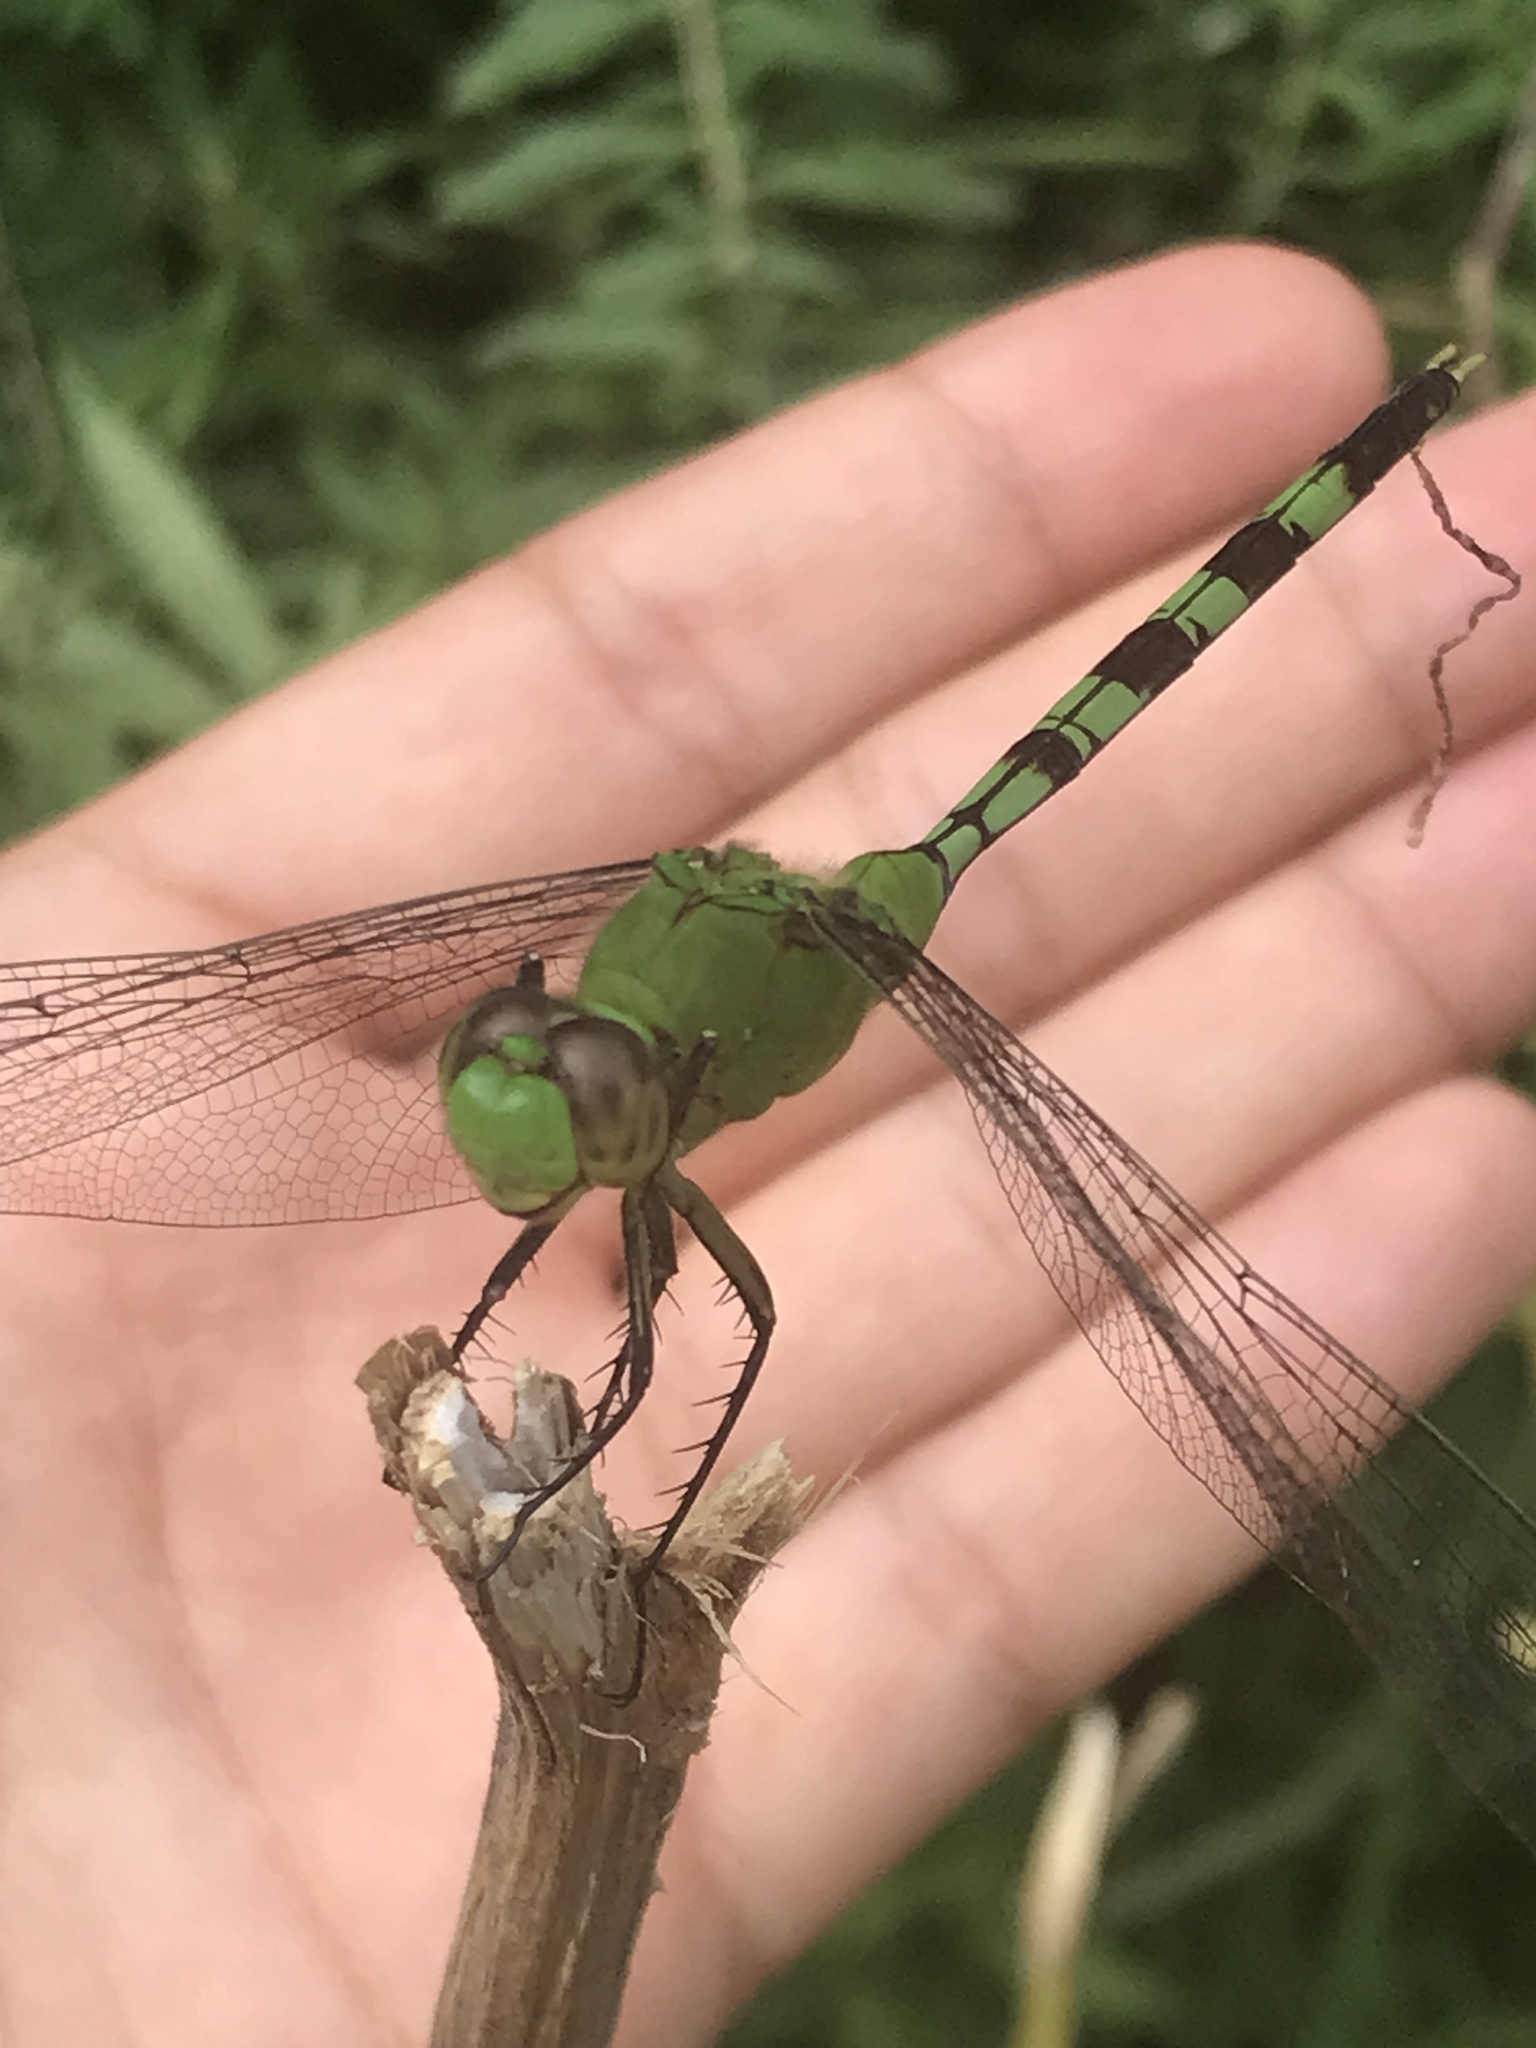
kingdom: Animalia
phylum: Arthropoda
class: Insecta
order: Odonata
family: Libellulidae
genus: Erythemis
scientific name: Erythemis vesiculosa
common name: Great pondhawk
